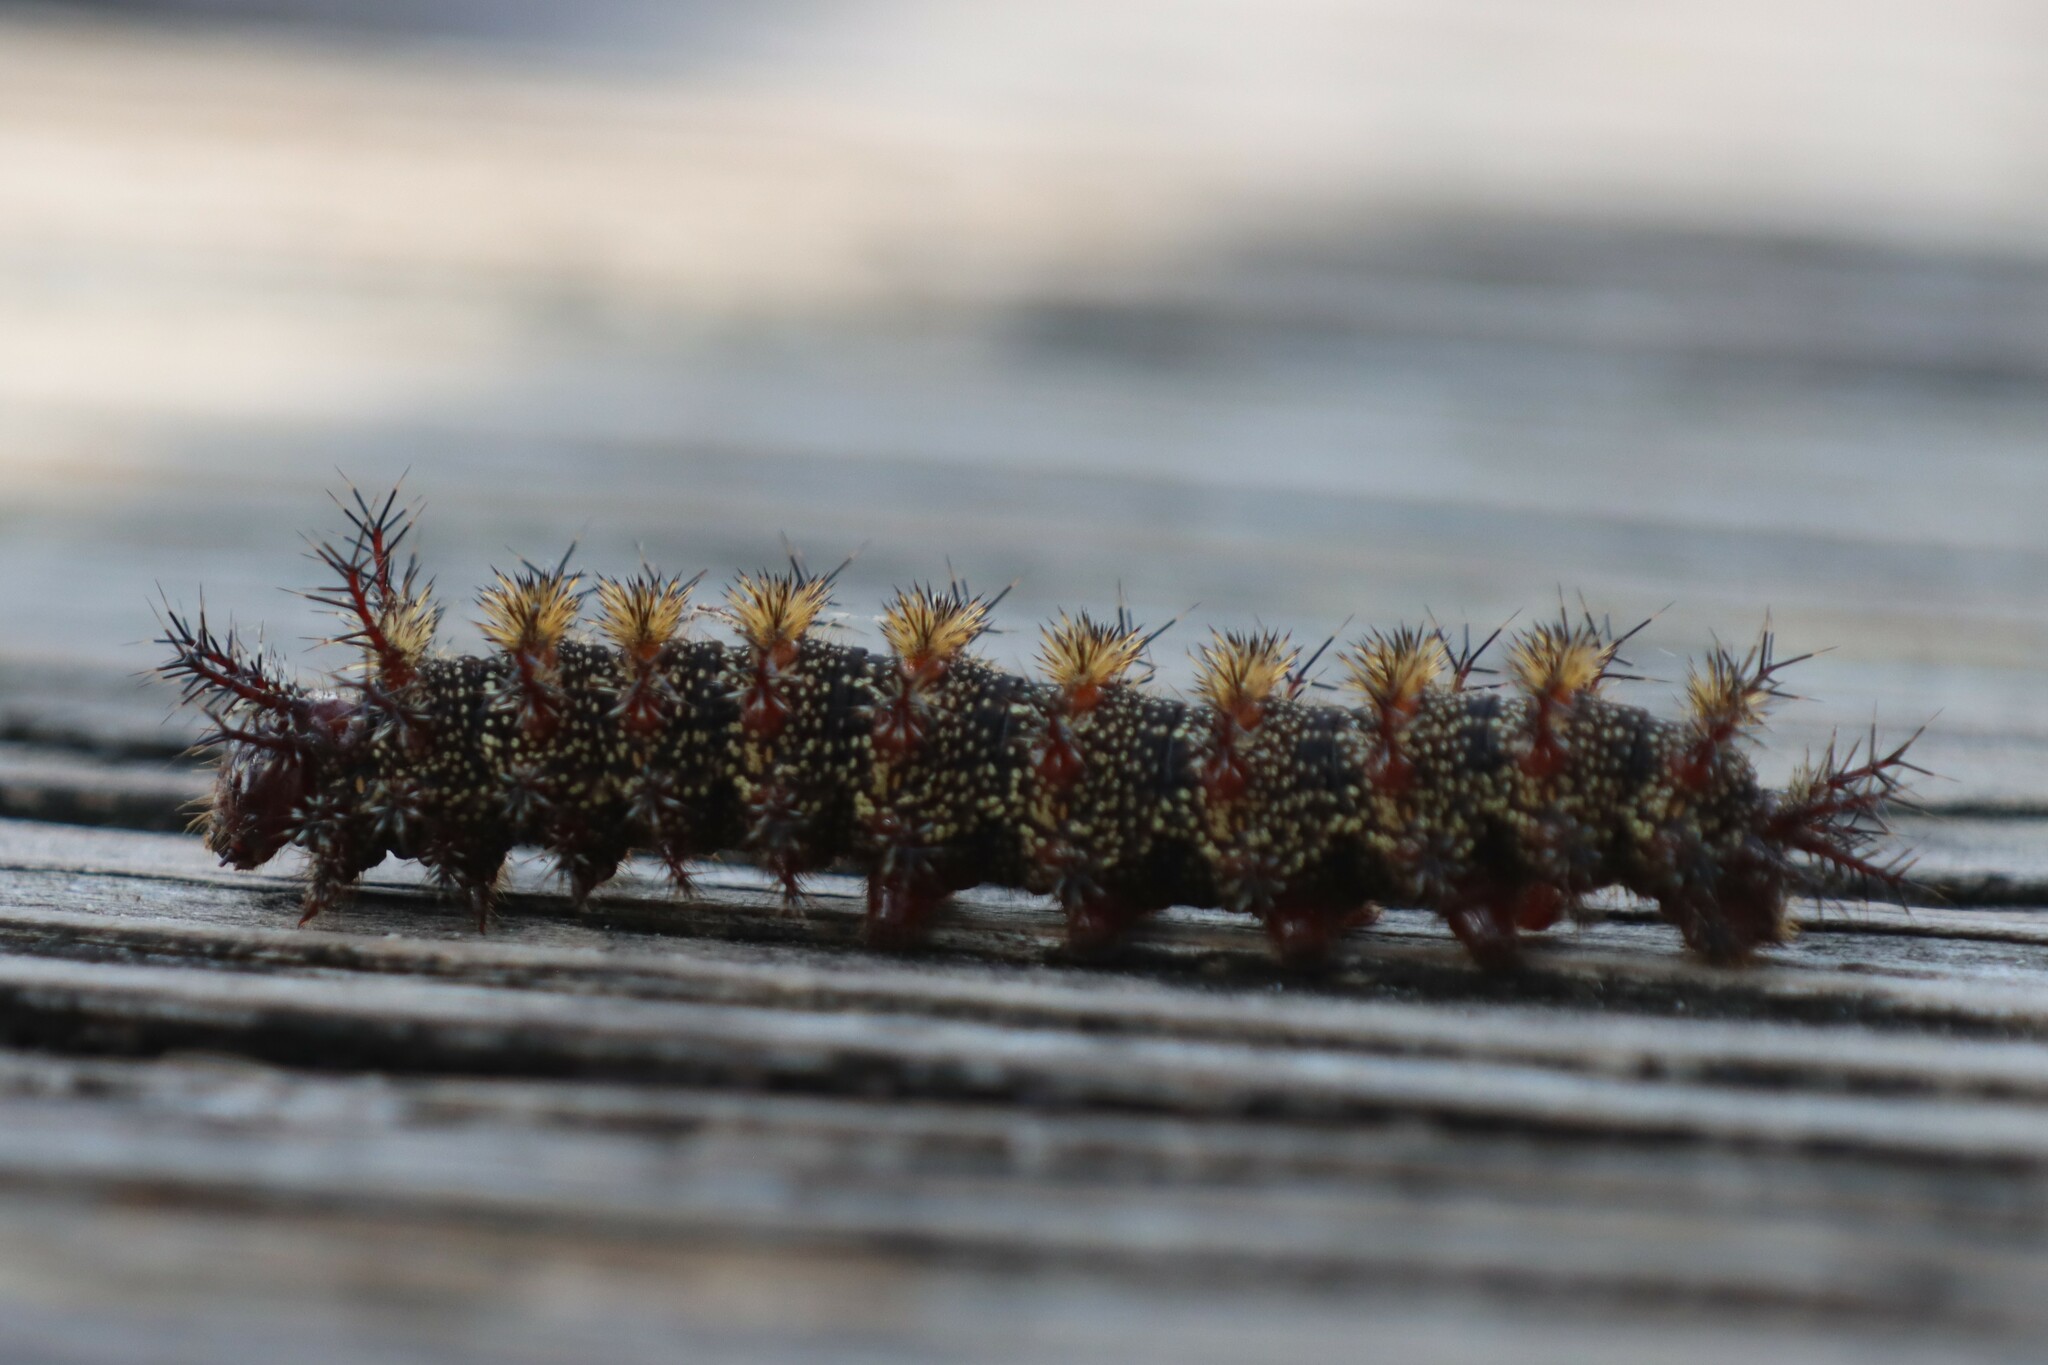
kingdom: Animalia
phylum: Arthropoda
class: Insecta
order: Lepidoptera
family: Saturniidae
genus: Hemileuca
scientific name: Hemileuca maia
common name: Eastern buckmoth
